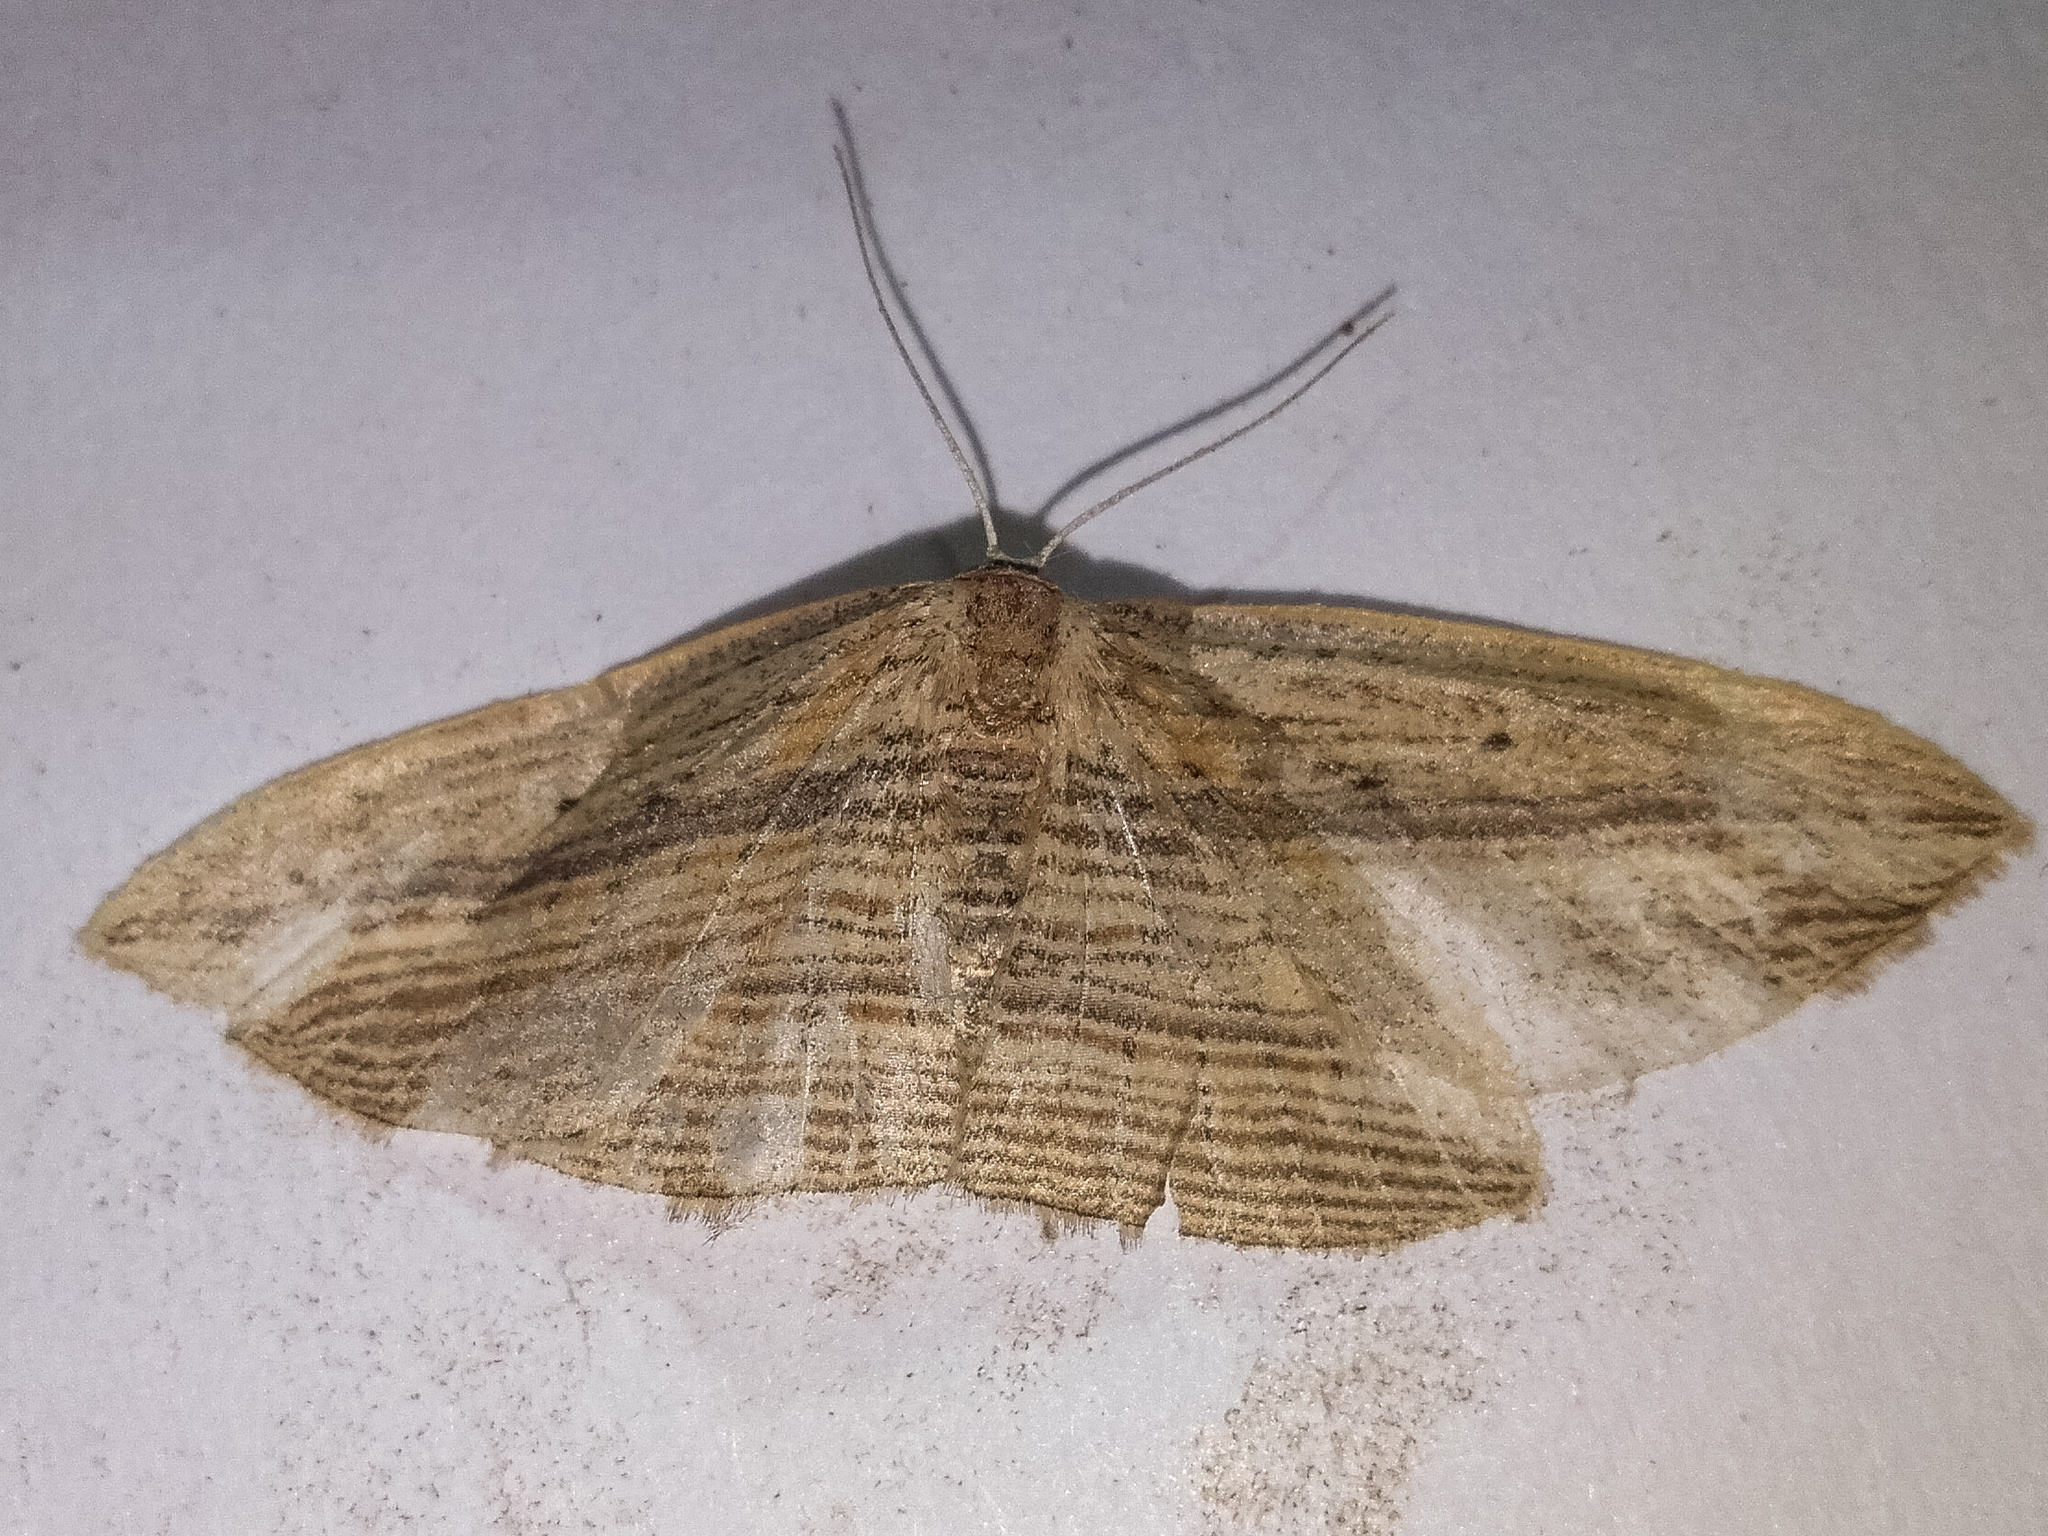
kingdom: Animalia
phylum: Arthropoda
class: Insecta
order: Lepidoptera
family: Geometridae
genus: Epiphryne
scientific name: Epiphryne verriculata
